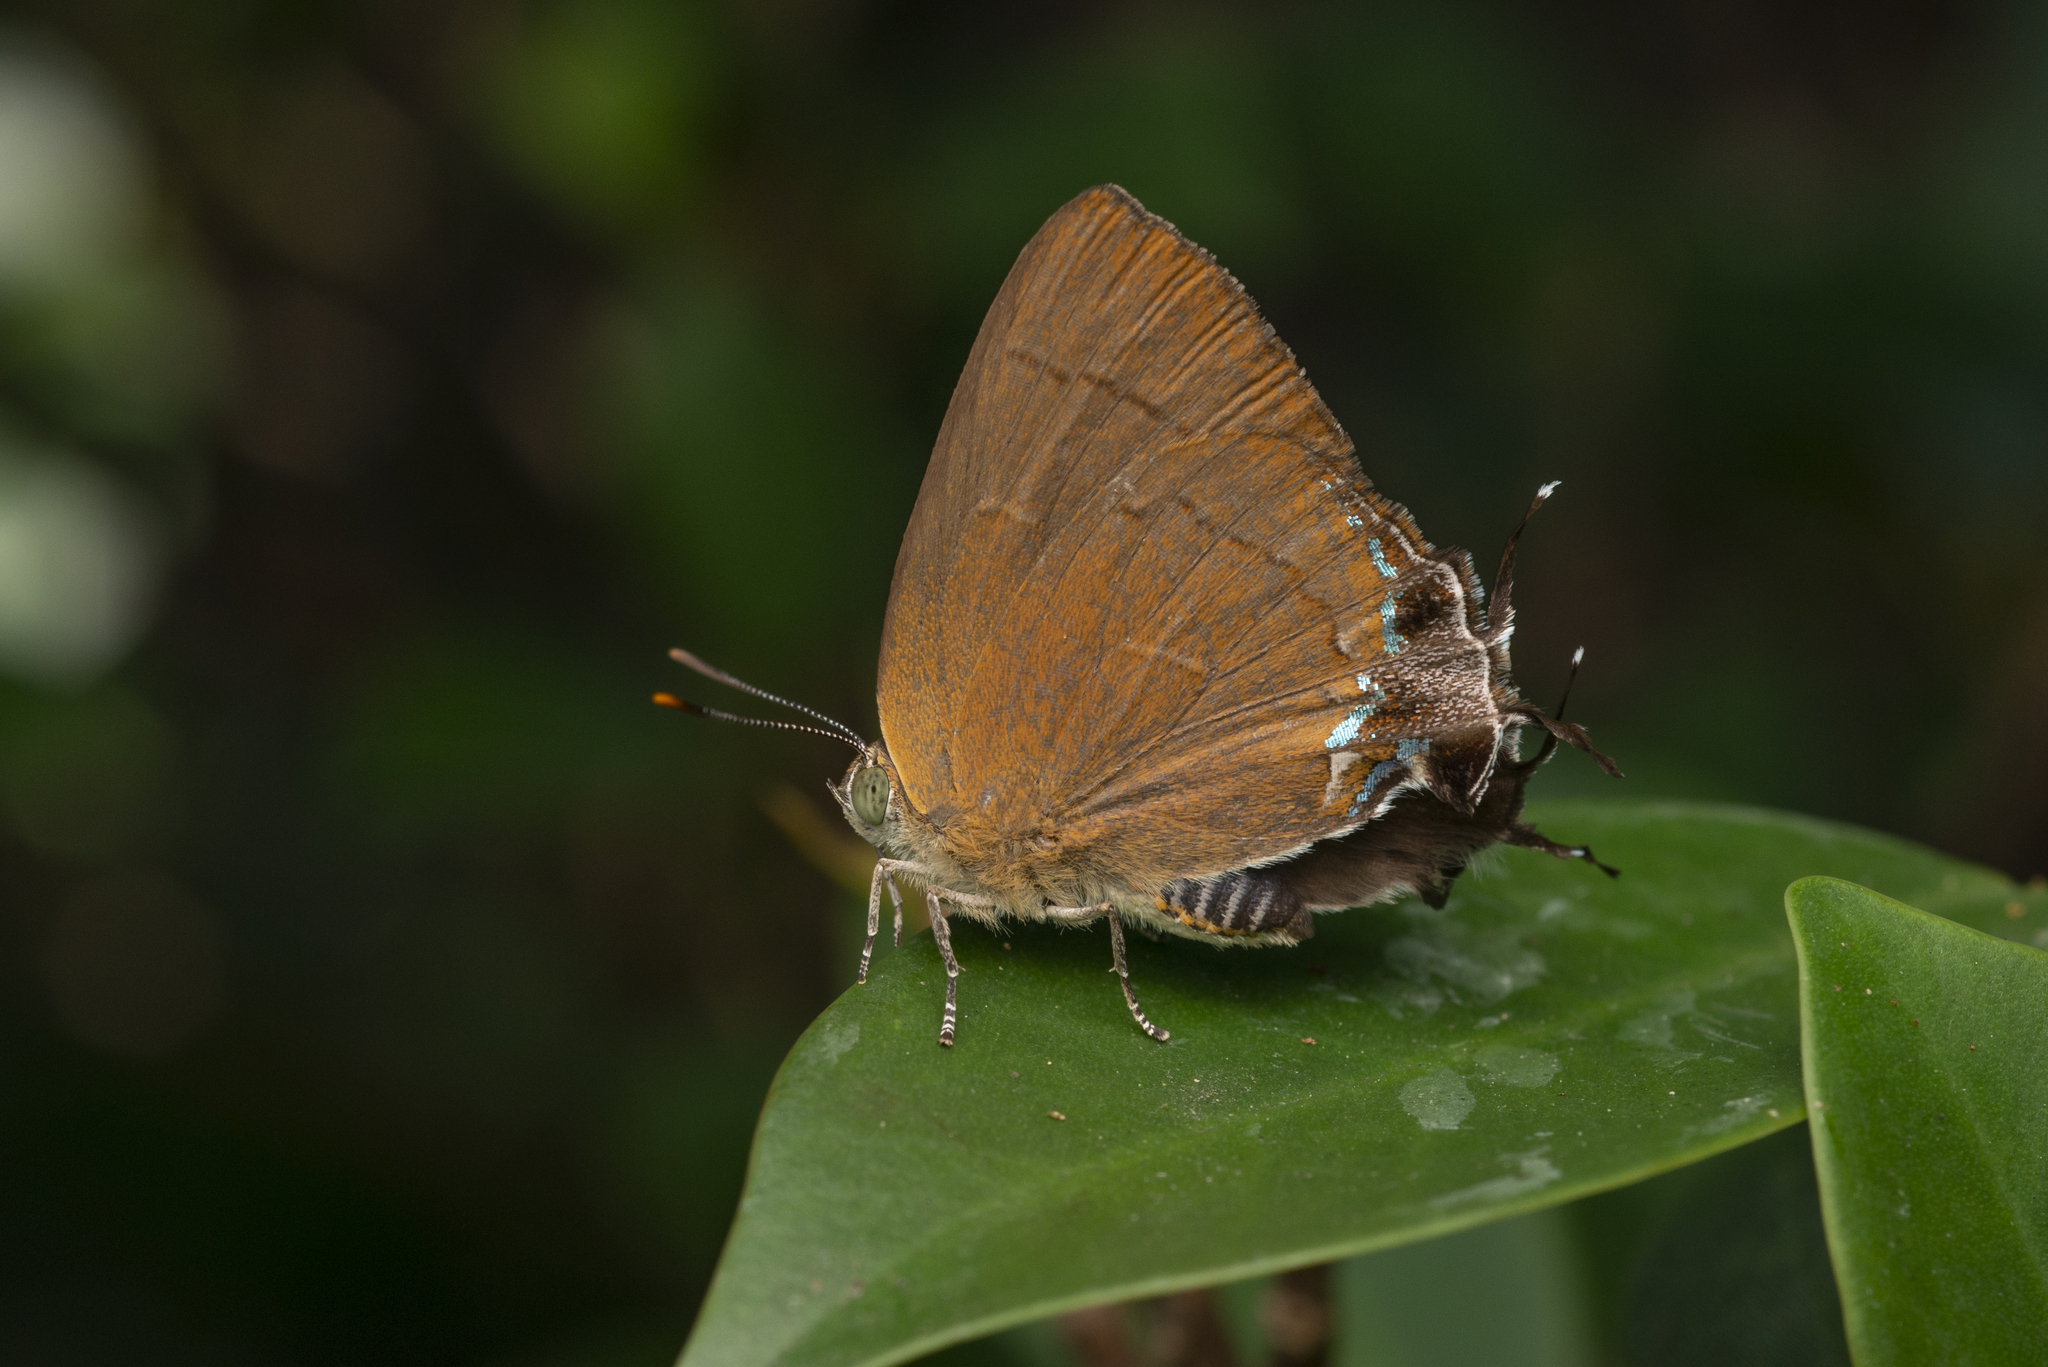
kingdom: Animalia
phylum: Arthropoda
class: Insecta
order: Lepidoptera
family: Lycaenidae
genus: Remelana
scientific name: Remelana jangala
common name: Chocolate royal
